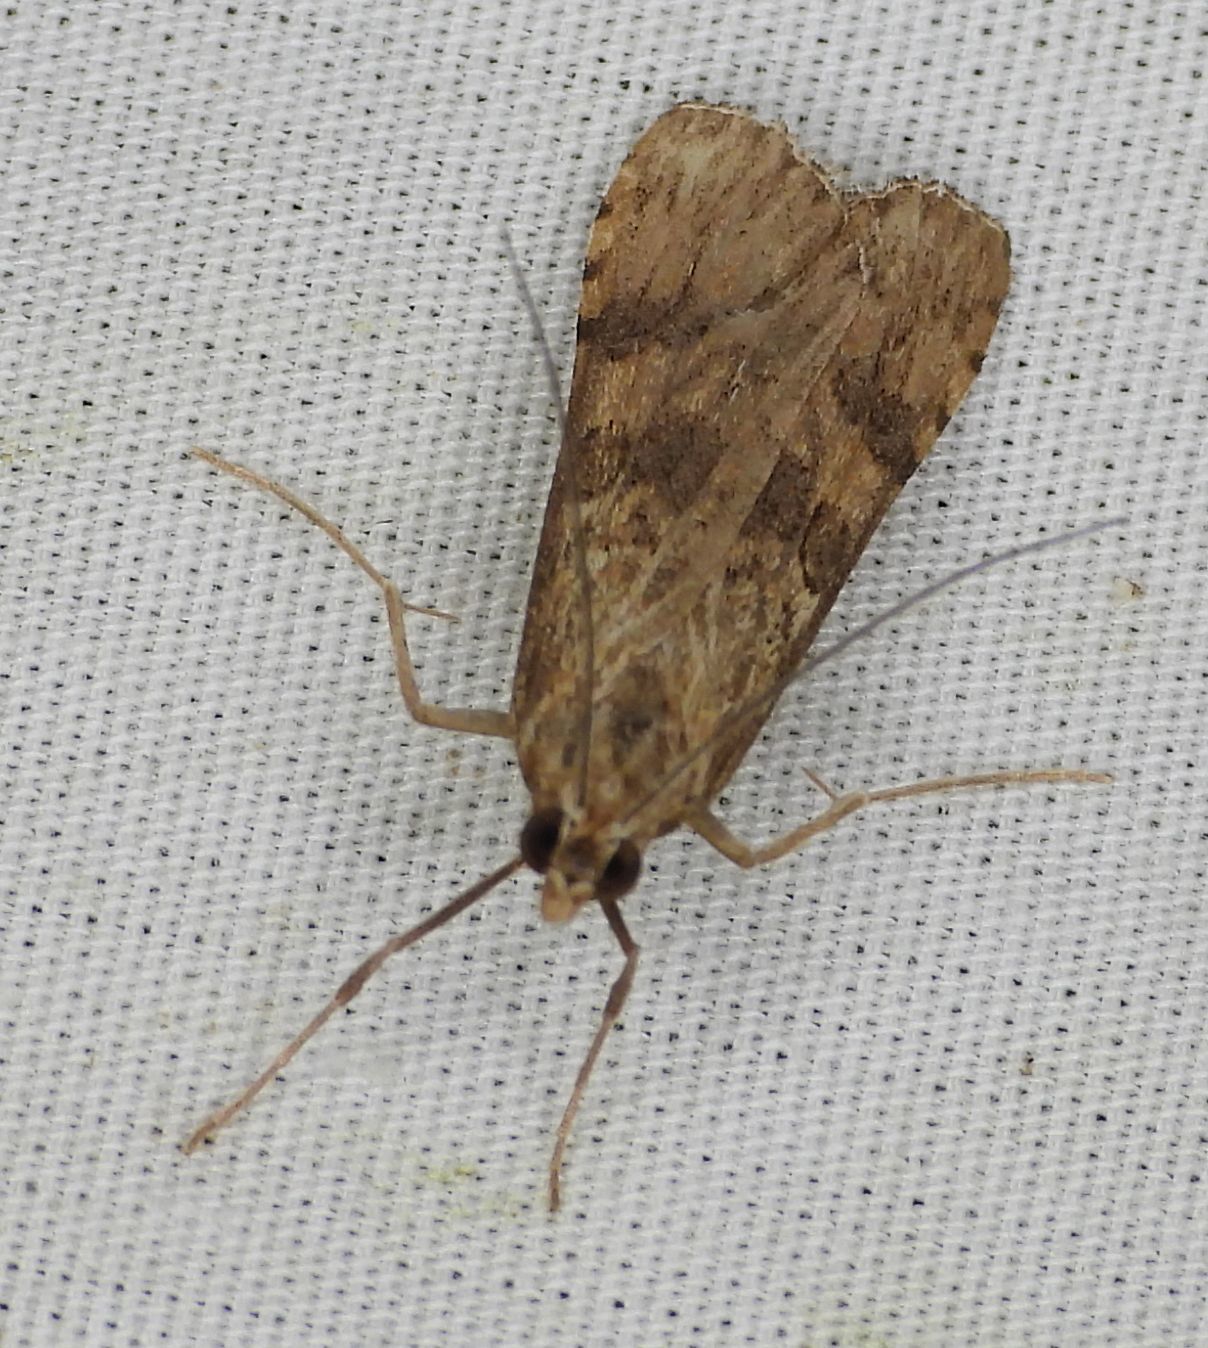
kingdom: Animalia
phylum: Arthropoda
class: Insecta
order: Lepidoptera
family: Crambidae
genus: Nomophila
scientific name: Nomophila nearctica
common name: American rush veneer
